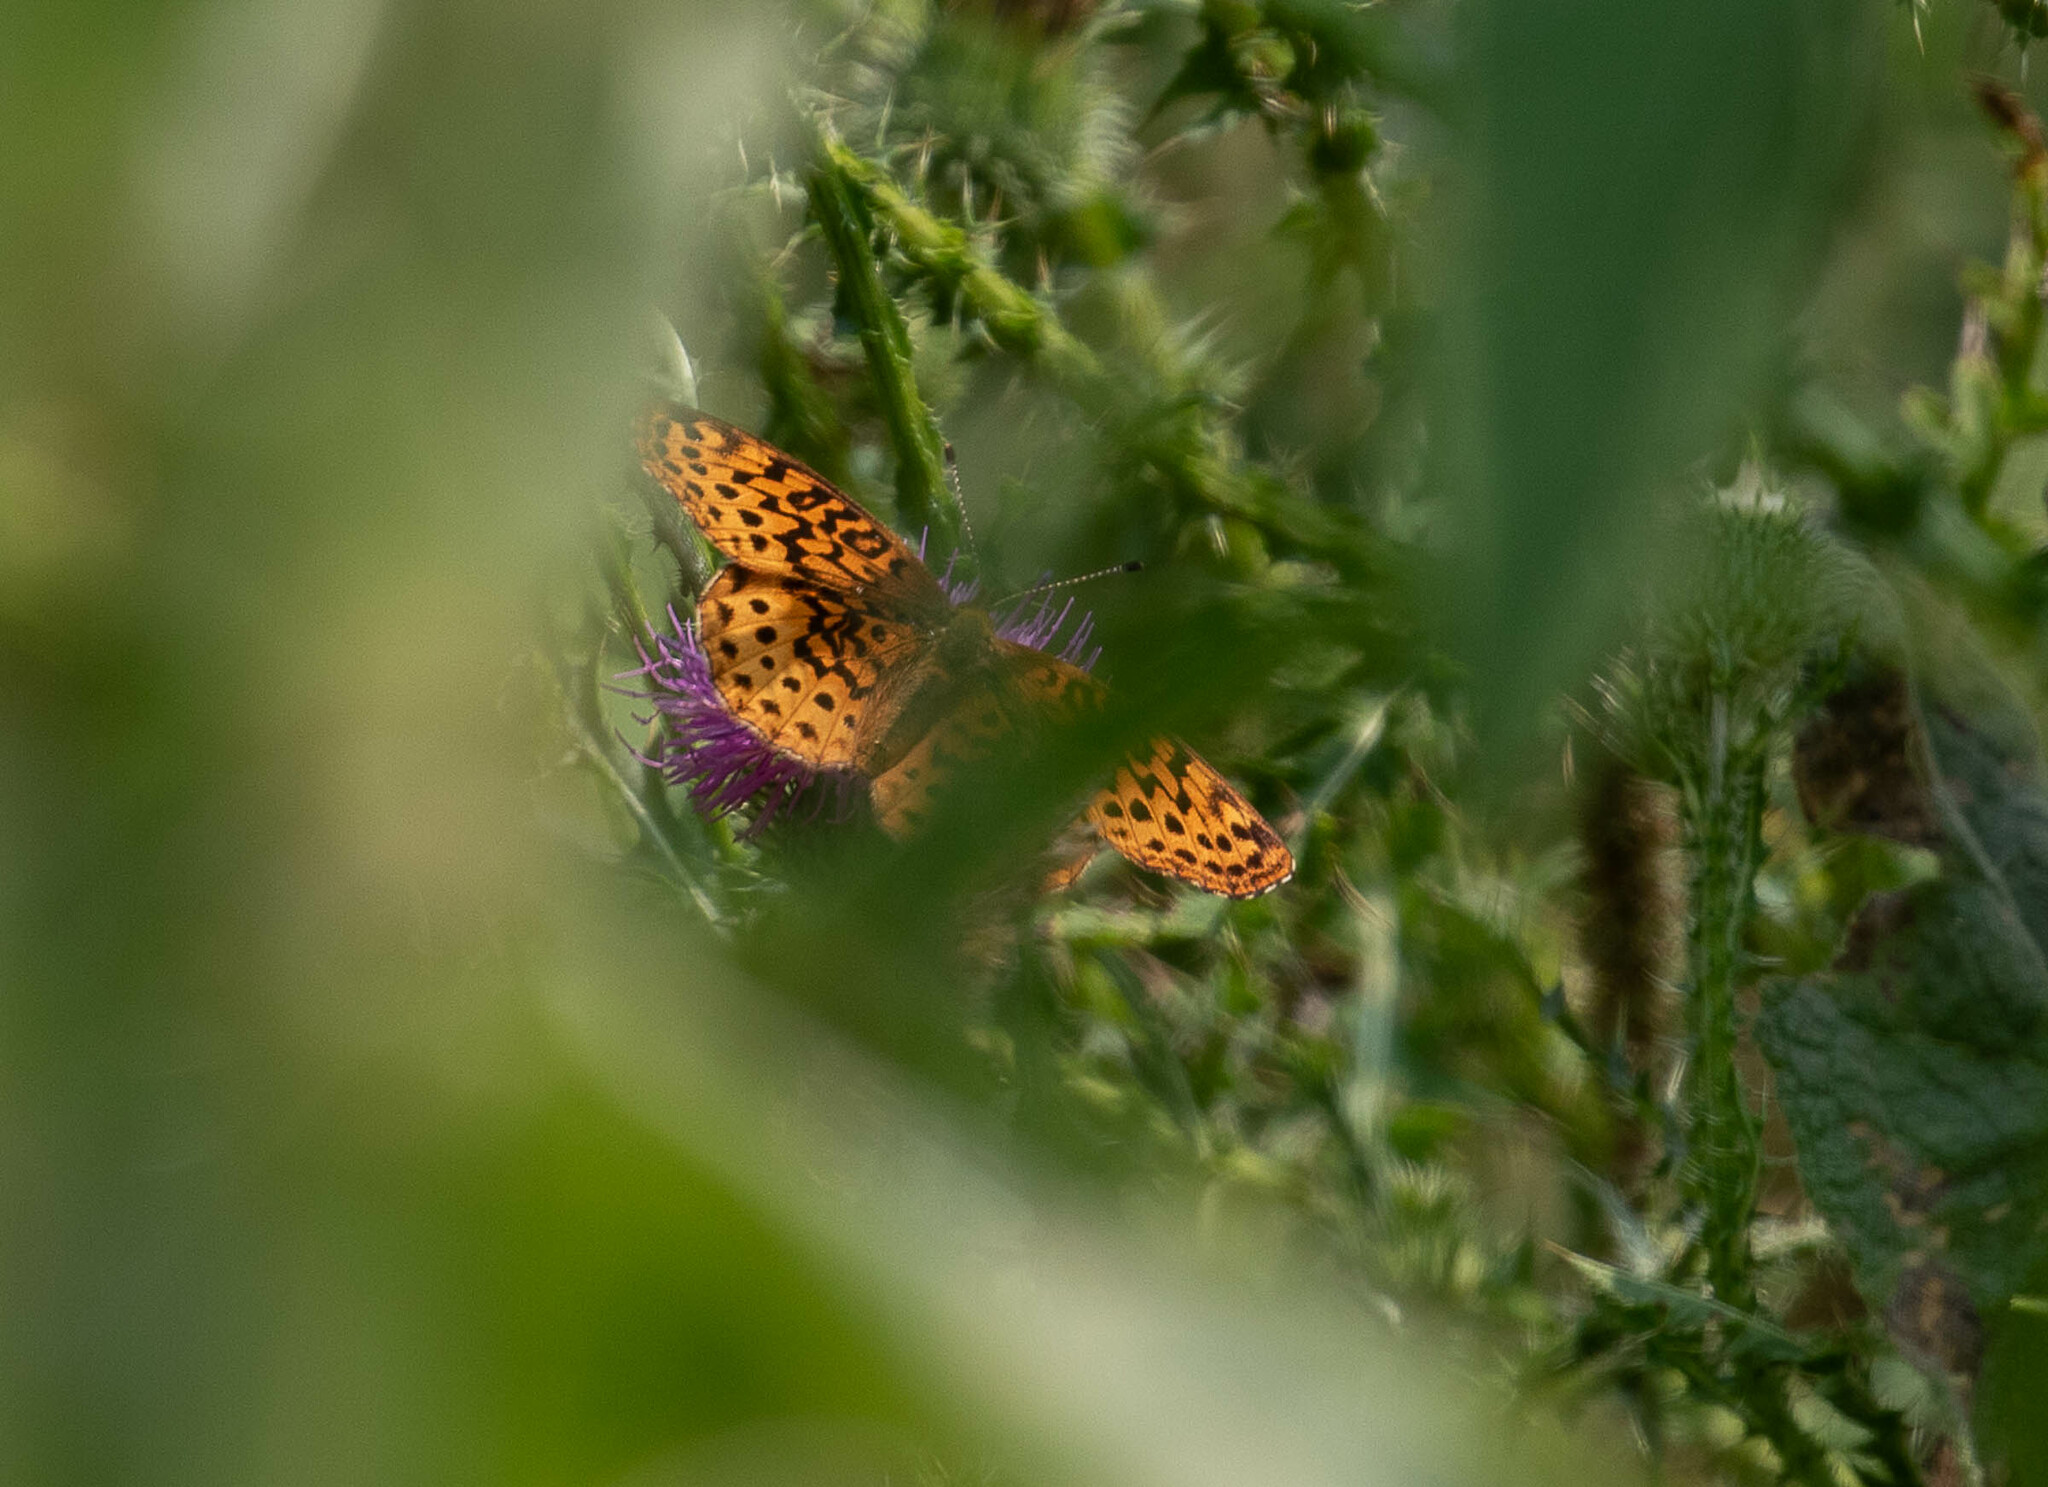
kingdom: Animalia
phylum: Arthropoda
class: Insecta
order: Lepidoptera
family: Nymphalidae
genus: Clossiana
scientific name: Clossiana toddi
